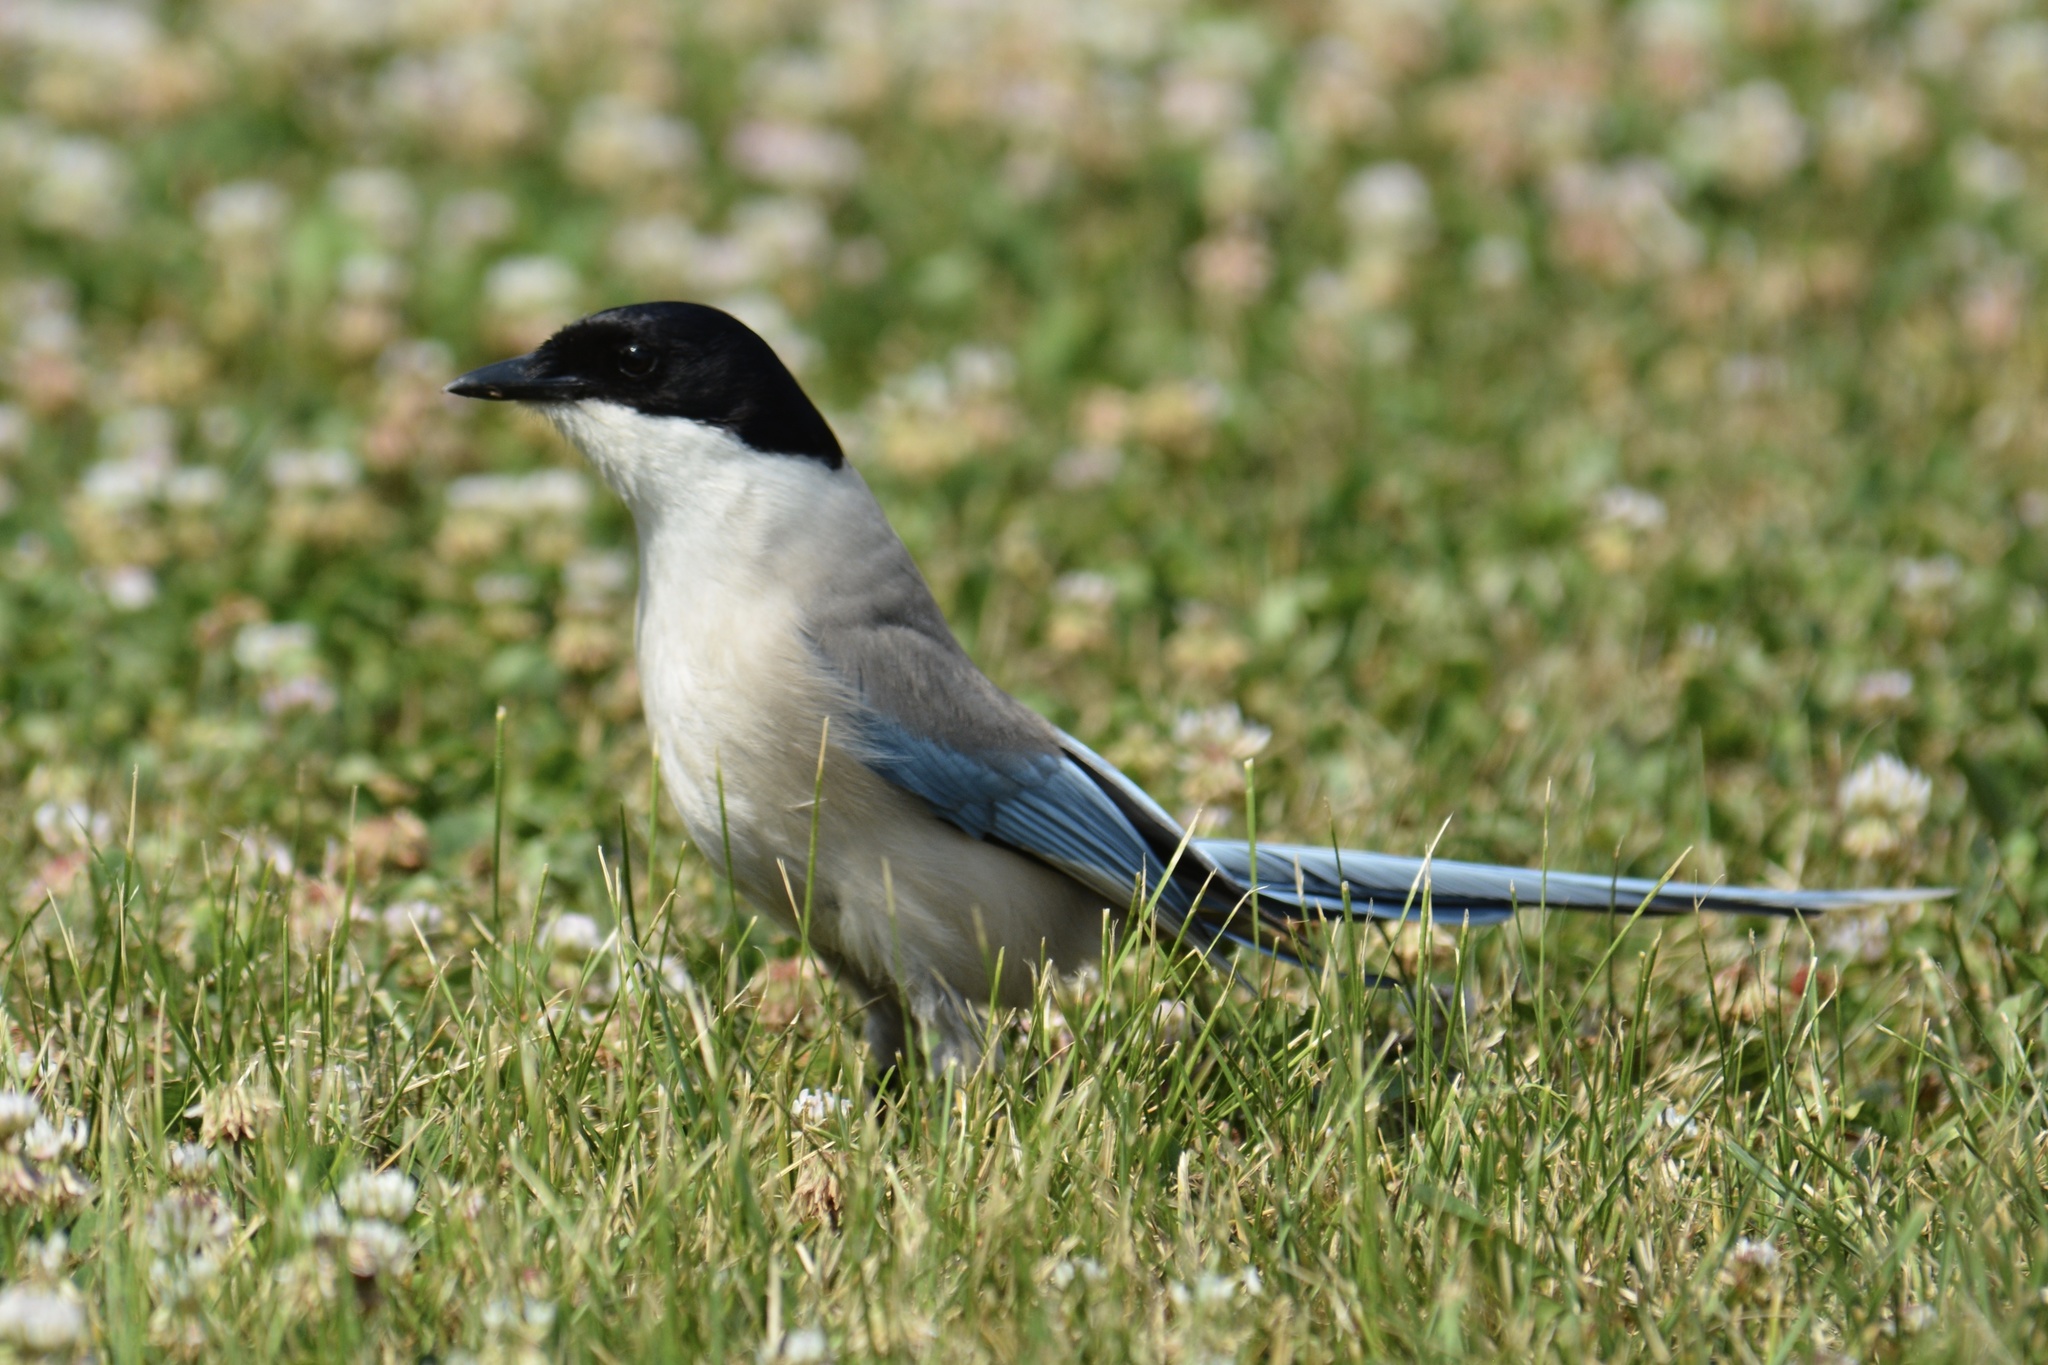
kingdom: Animalia
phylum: Chordata
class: Aves
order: Passeriformes
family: Corvidae
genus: Cyanopica
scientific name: Cyanopica cyanus
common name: Azure-winged magpie
